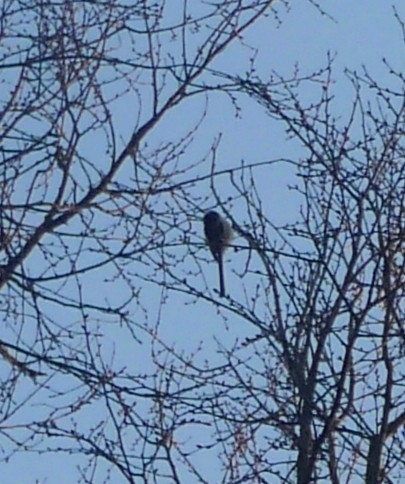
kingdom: Animalia
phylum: Chordata
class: Aves
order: Passeriformes
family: Aegithalidae
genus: Aegithalos
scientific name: Aegithalos caudatus
